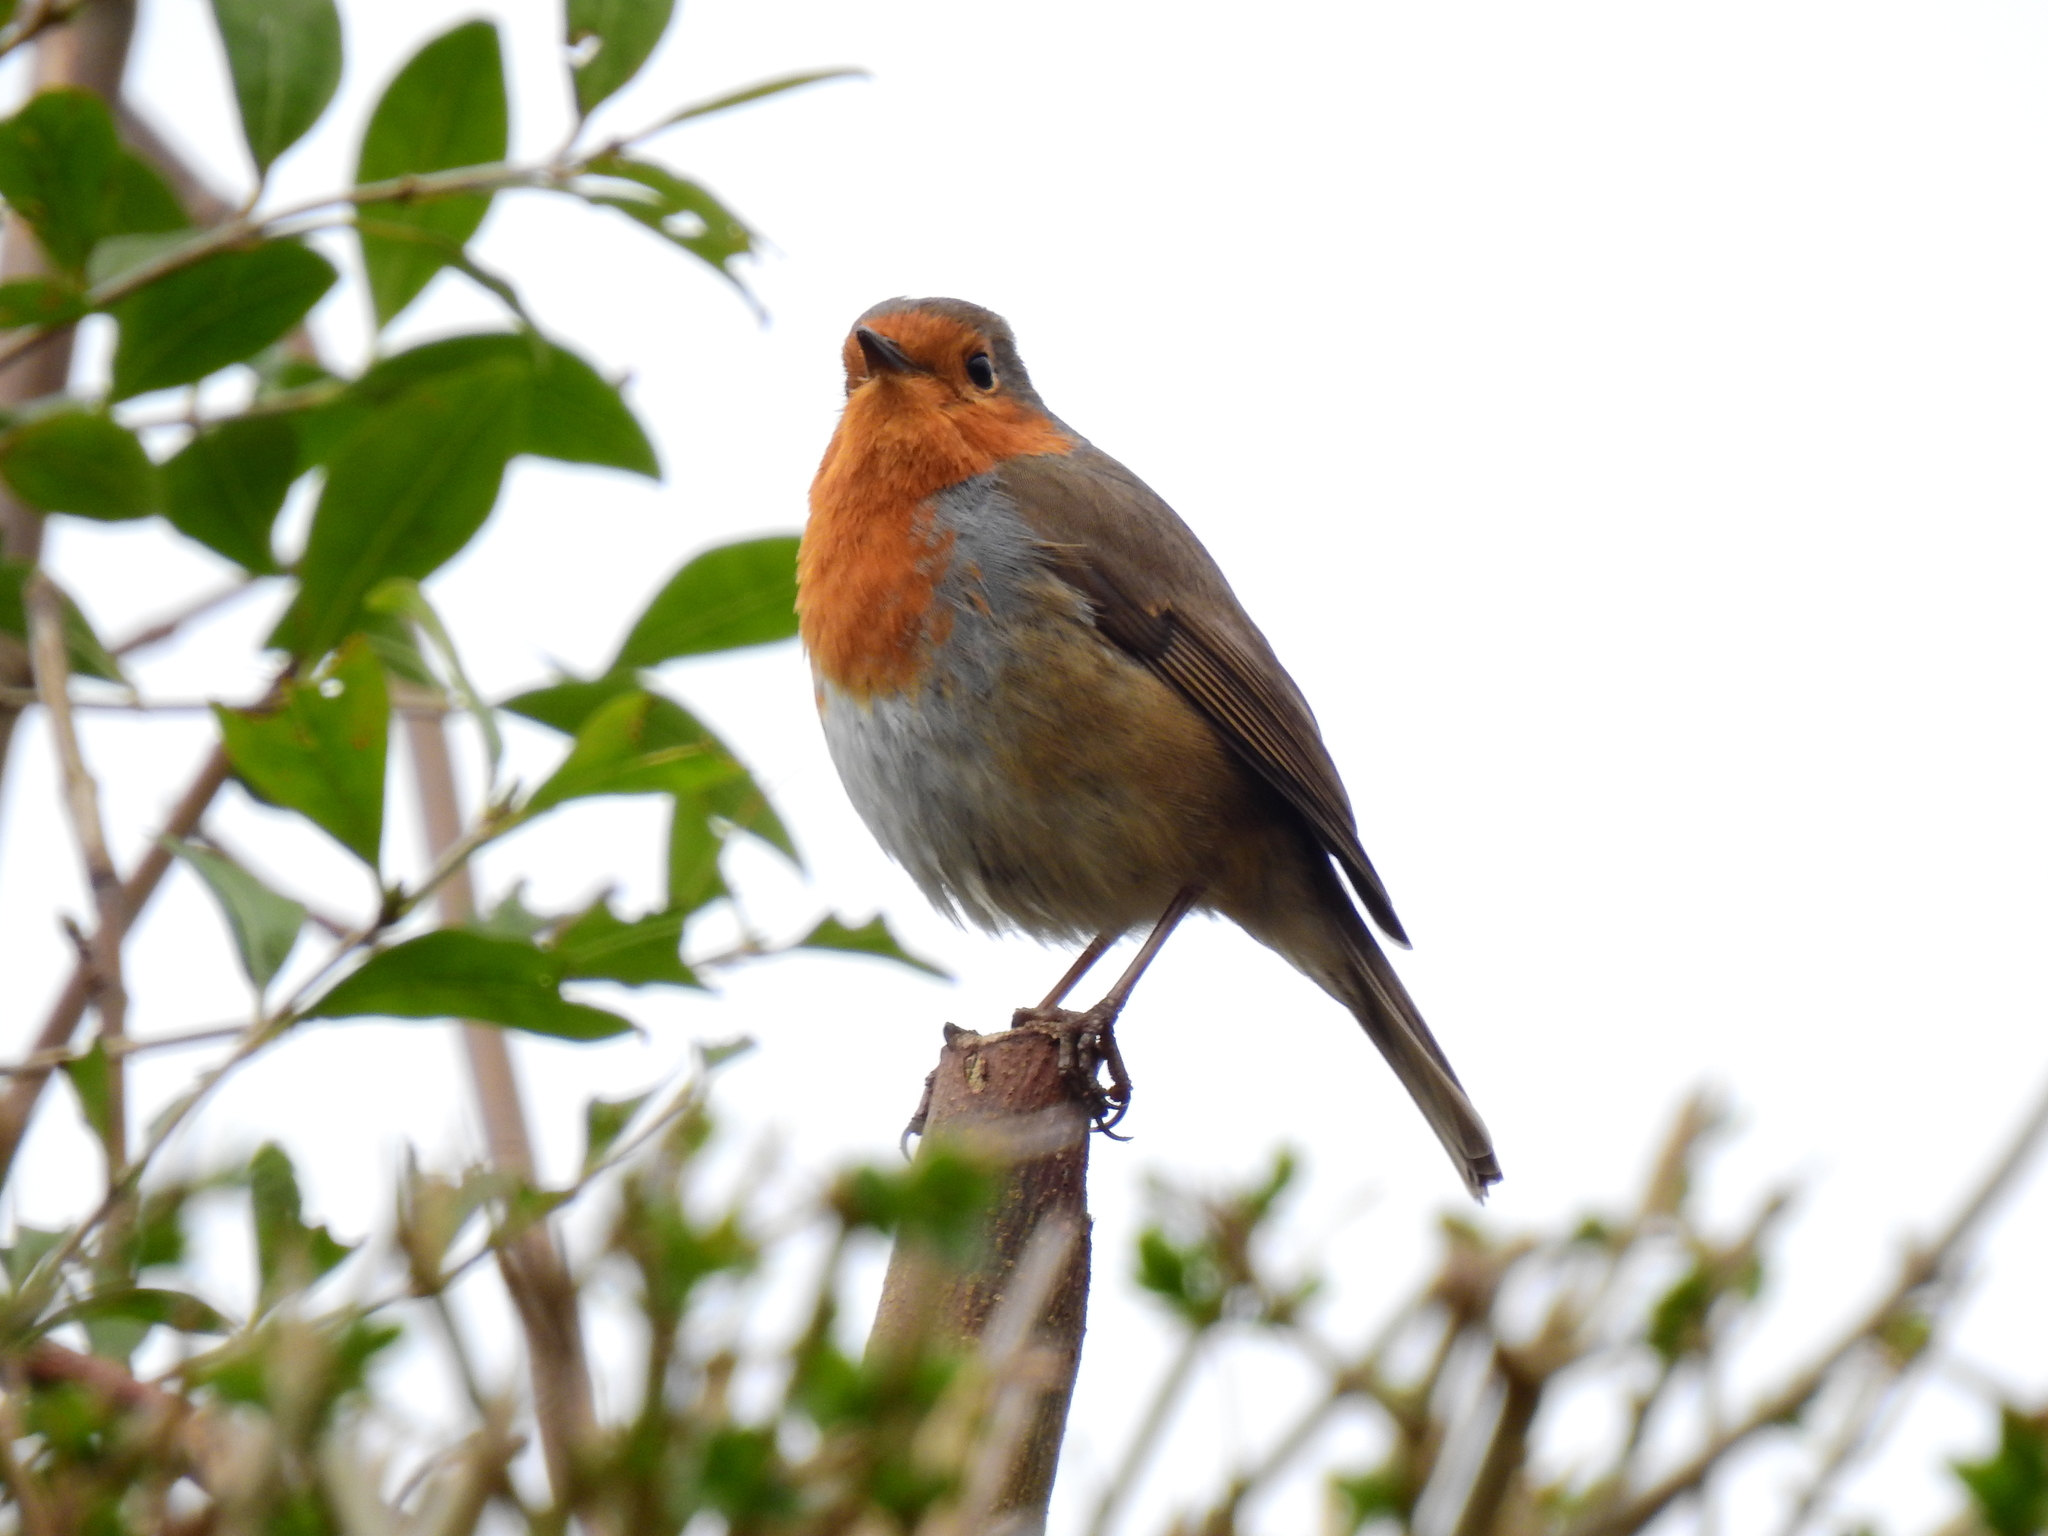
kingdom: Animalia
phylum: Chordata
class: Aves
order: Passeriformes
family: Muscicapidae
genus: Erithacus
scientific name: Erithacus rubecula
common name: European robin
